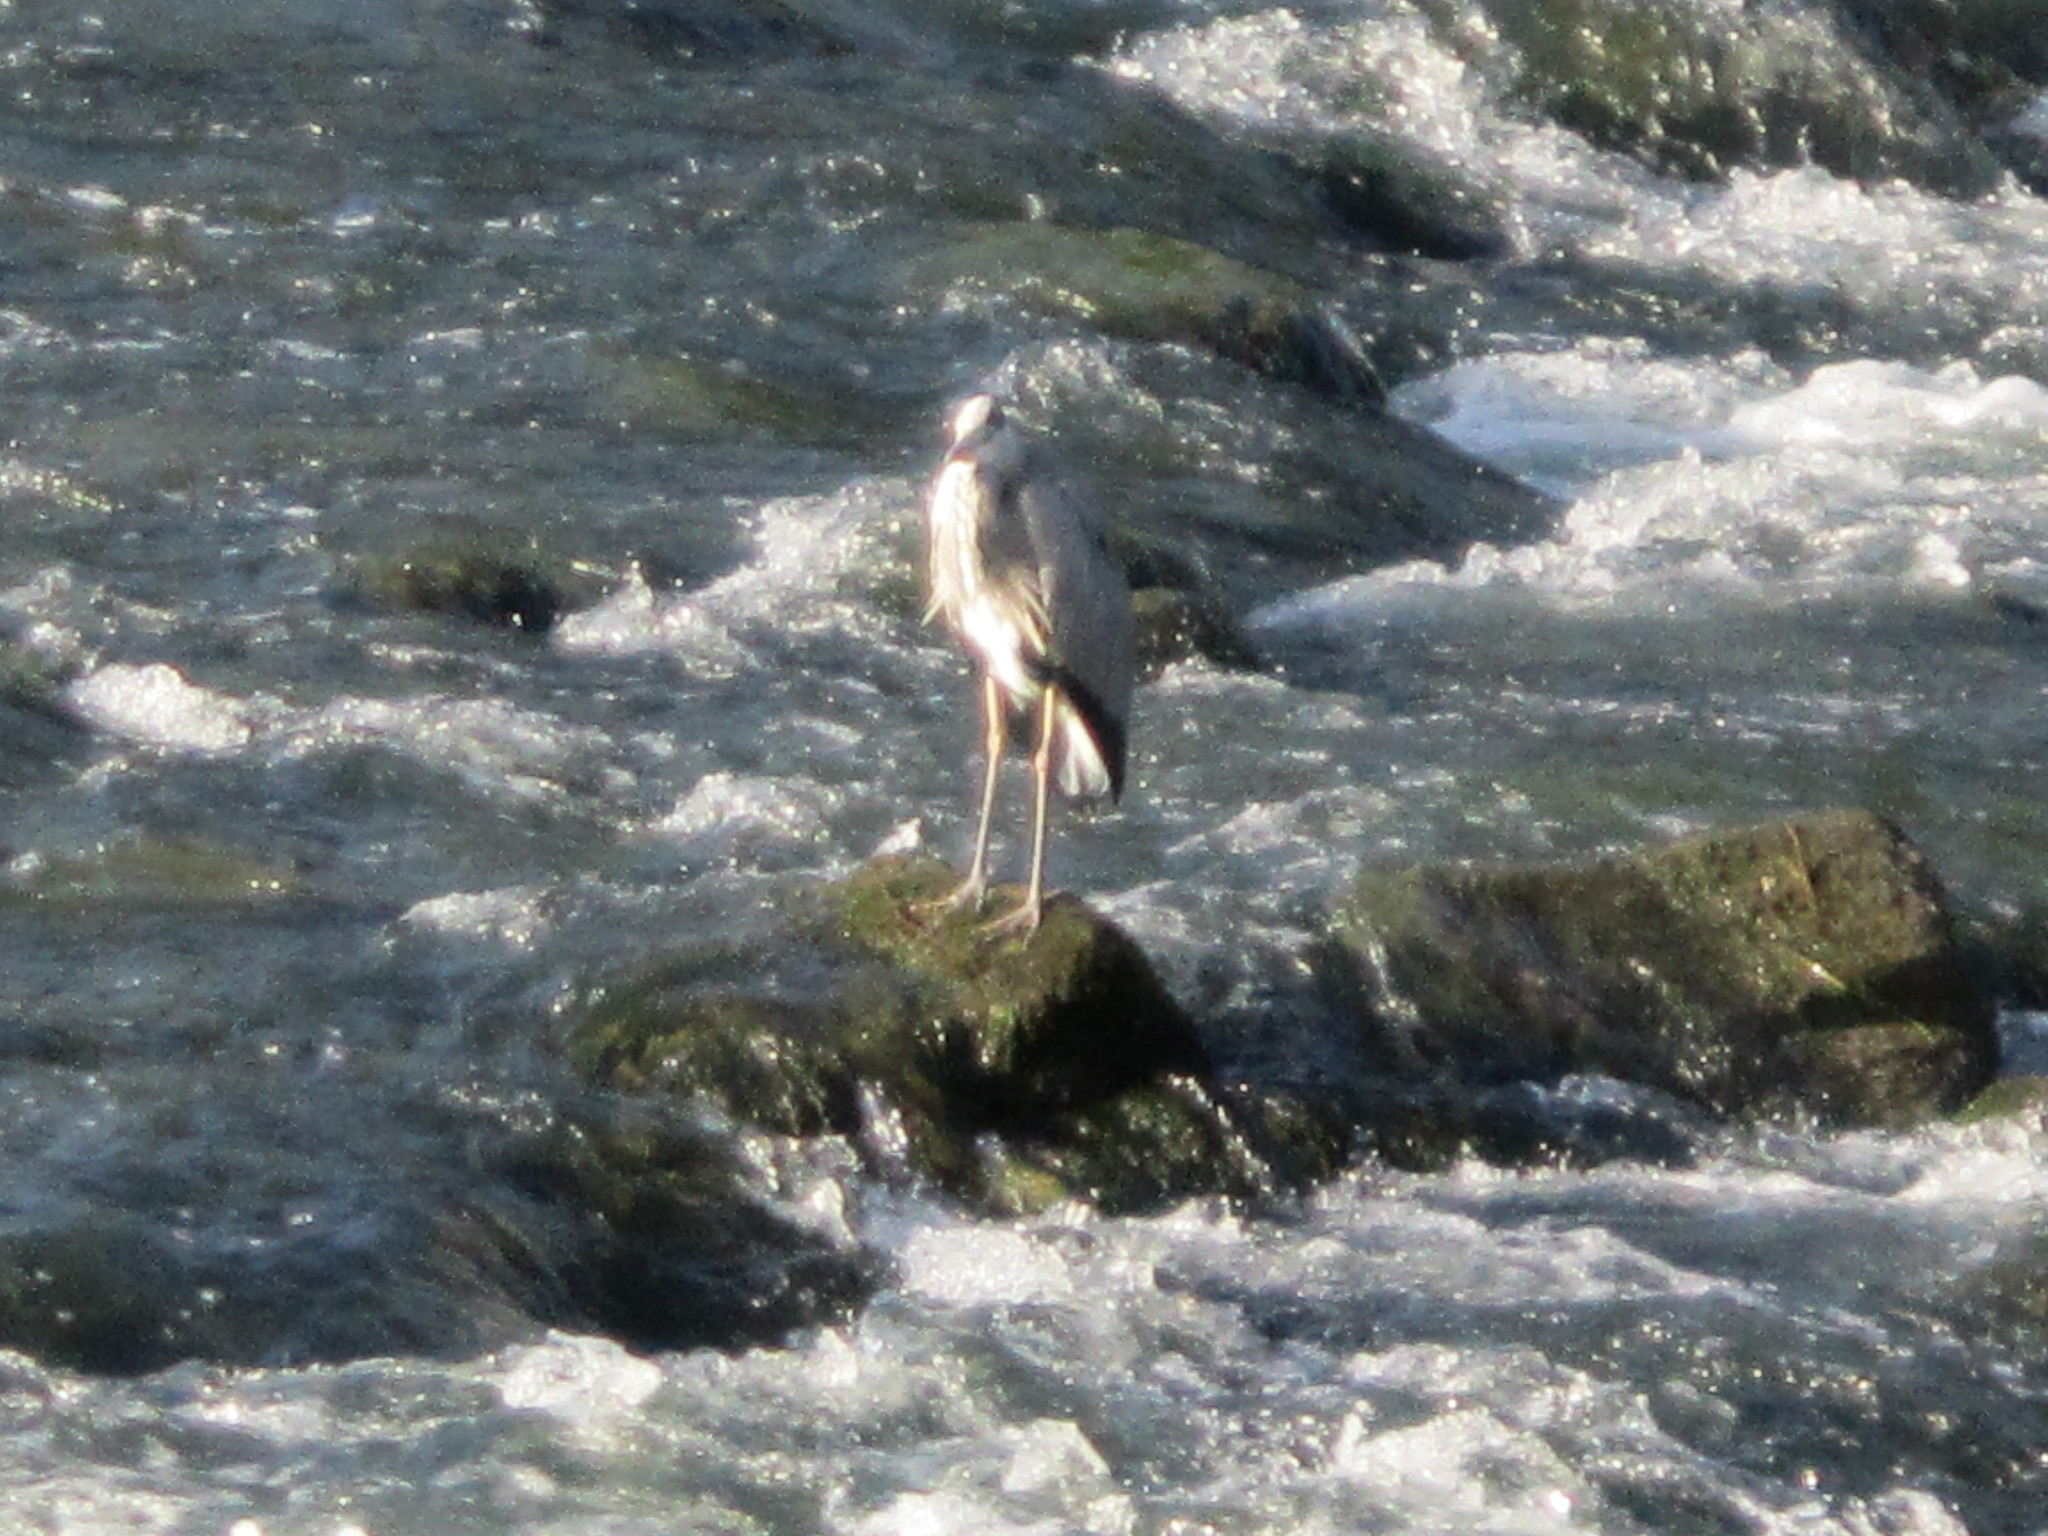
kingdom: Animalia
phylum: Chordata
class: Aves
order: Pelecaniformes
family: Ardeidae
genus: Ardea
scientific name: Ardea cinerea
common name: Grey heron
